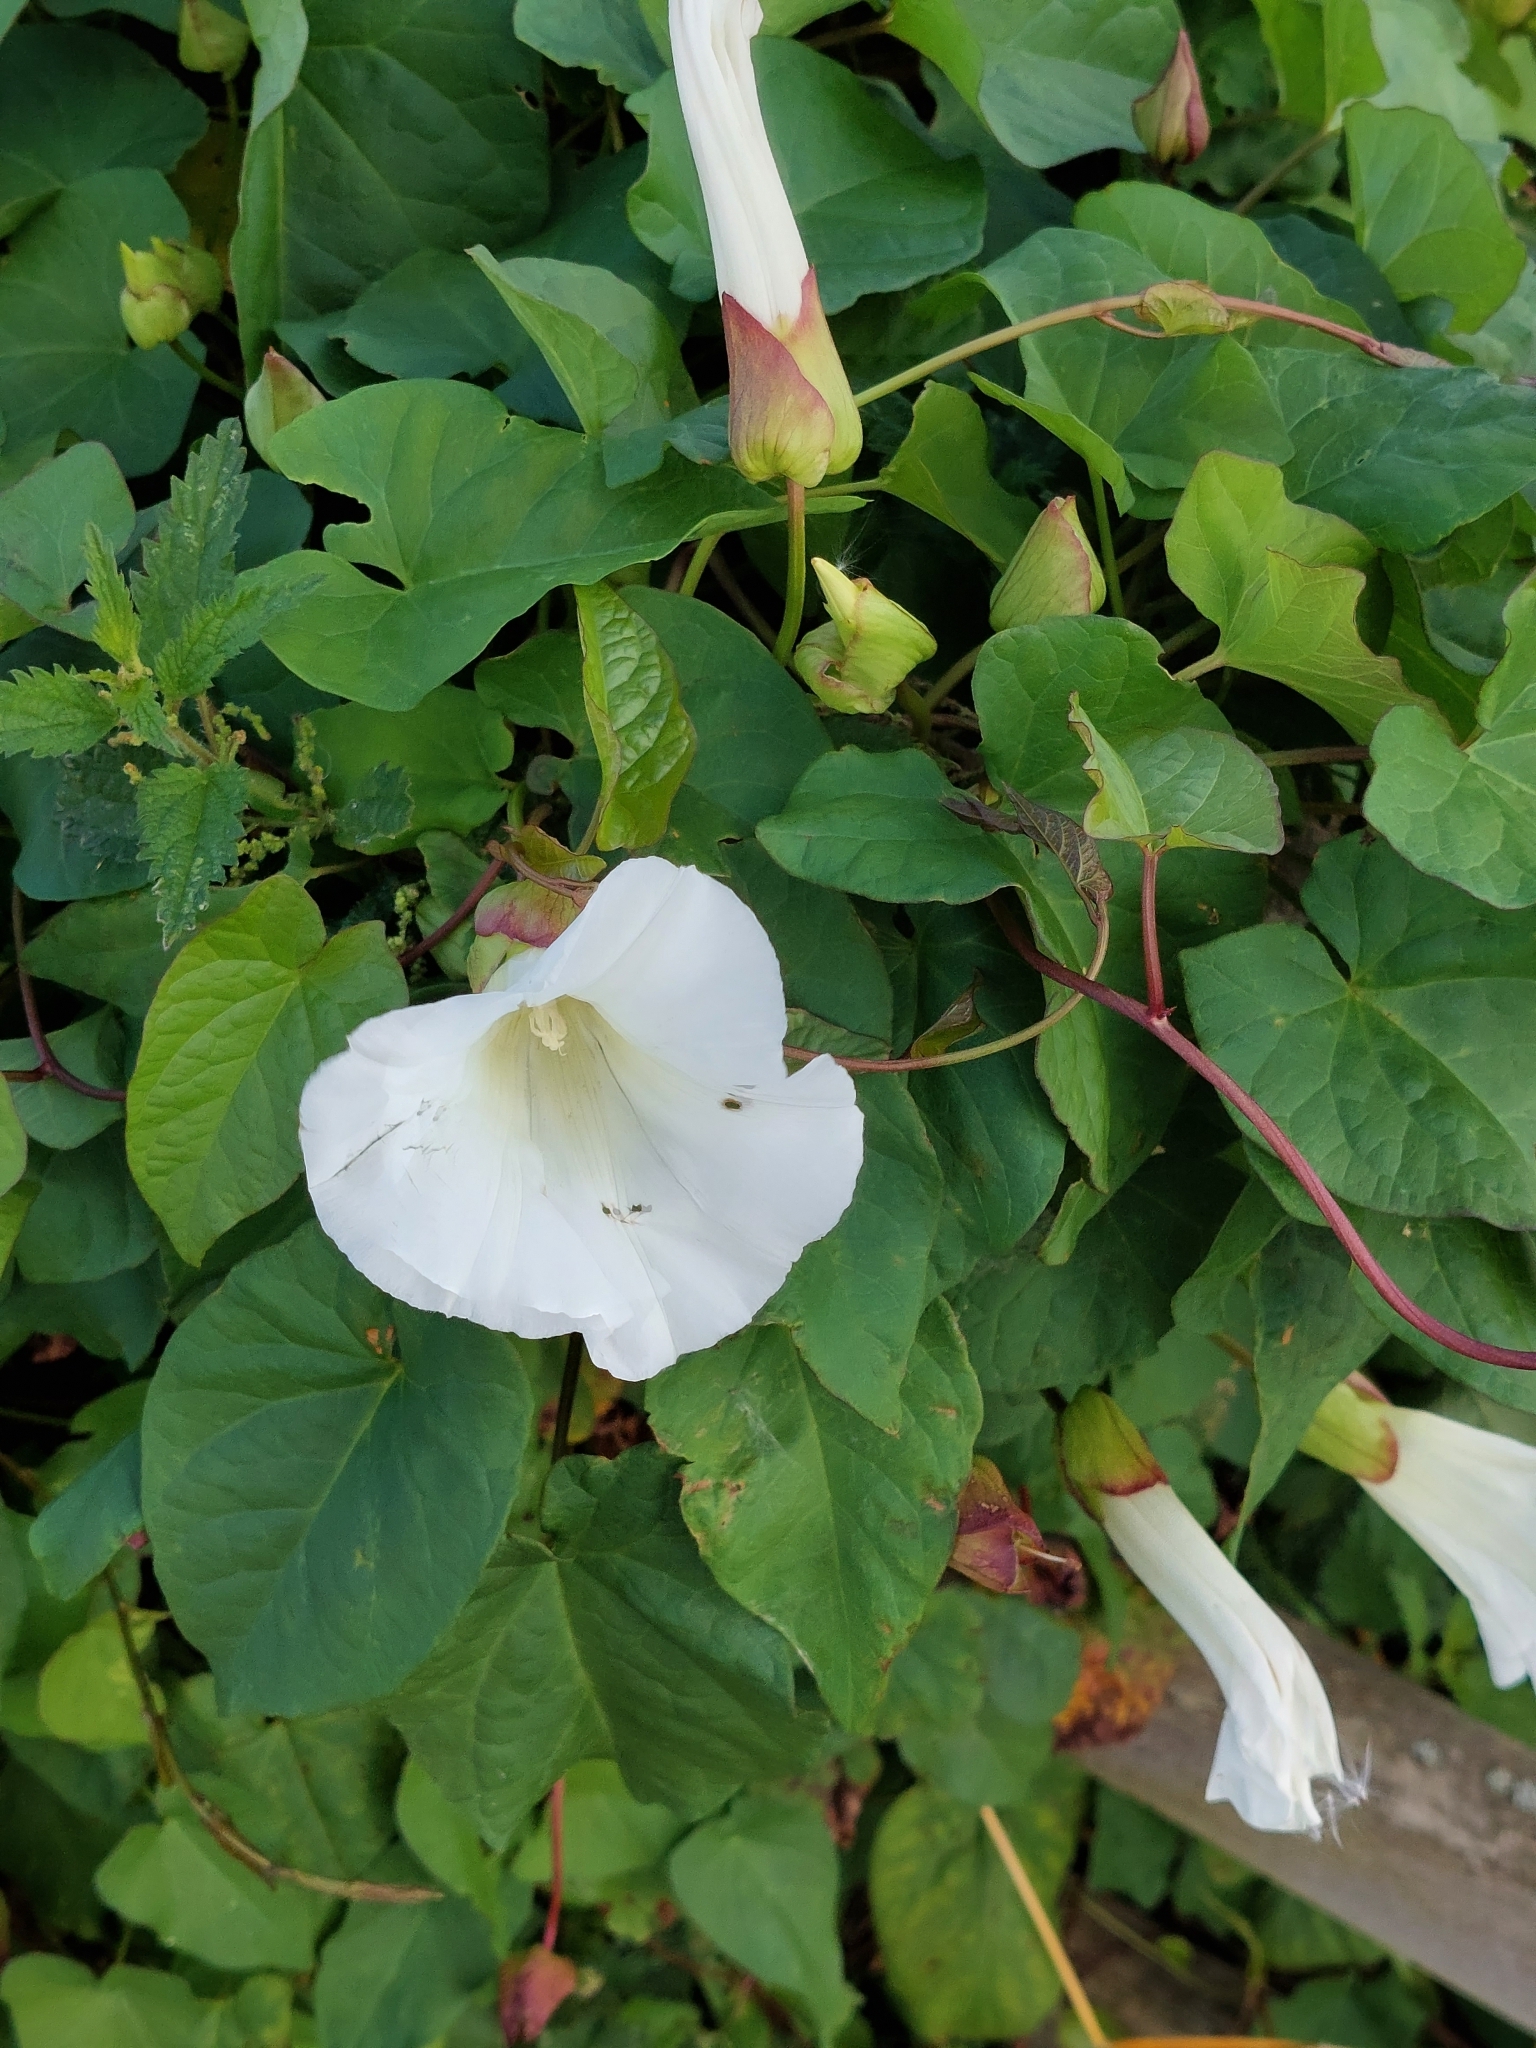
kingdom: Plantae
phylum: Tracheophyta
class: Magnoliopsida
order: Solanales
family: Convolvulaceae
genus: Calystegia
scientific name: Calystegia silvatica
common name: Large bindweed
